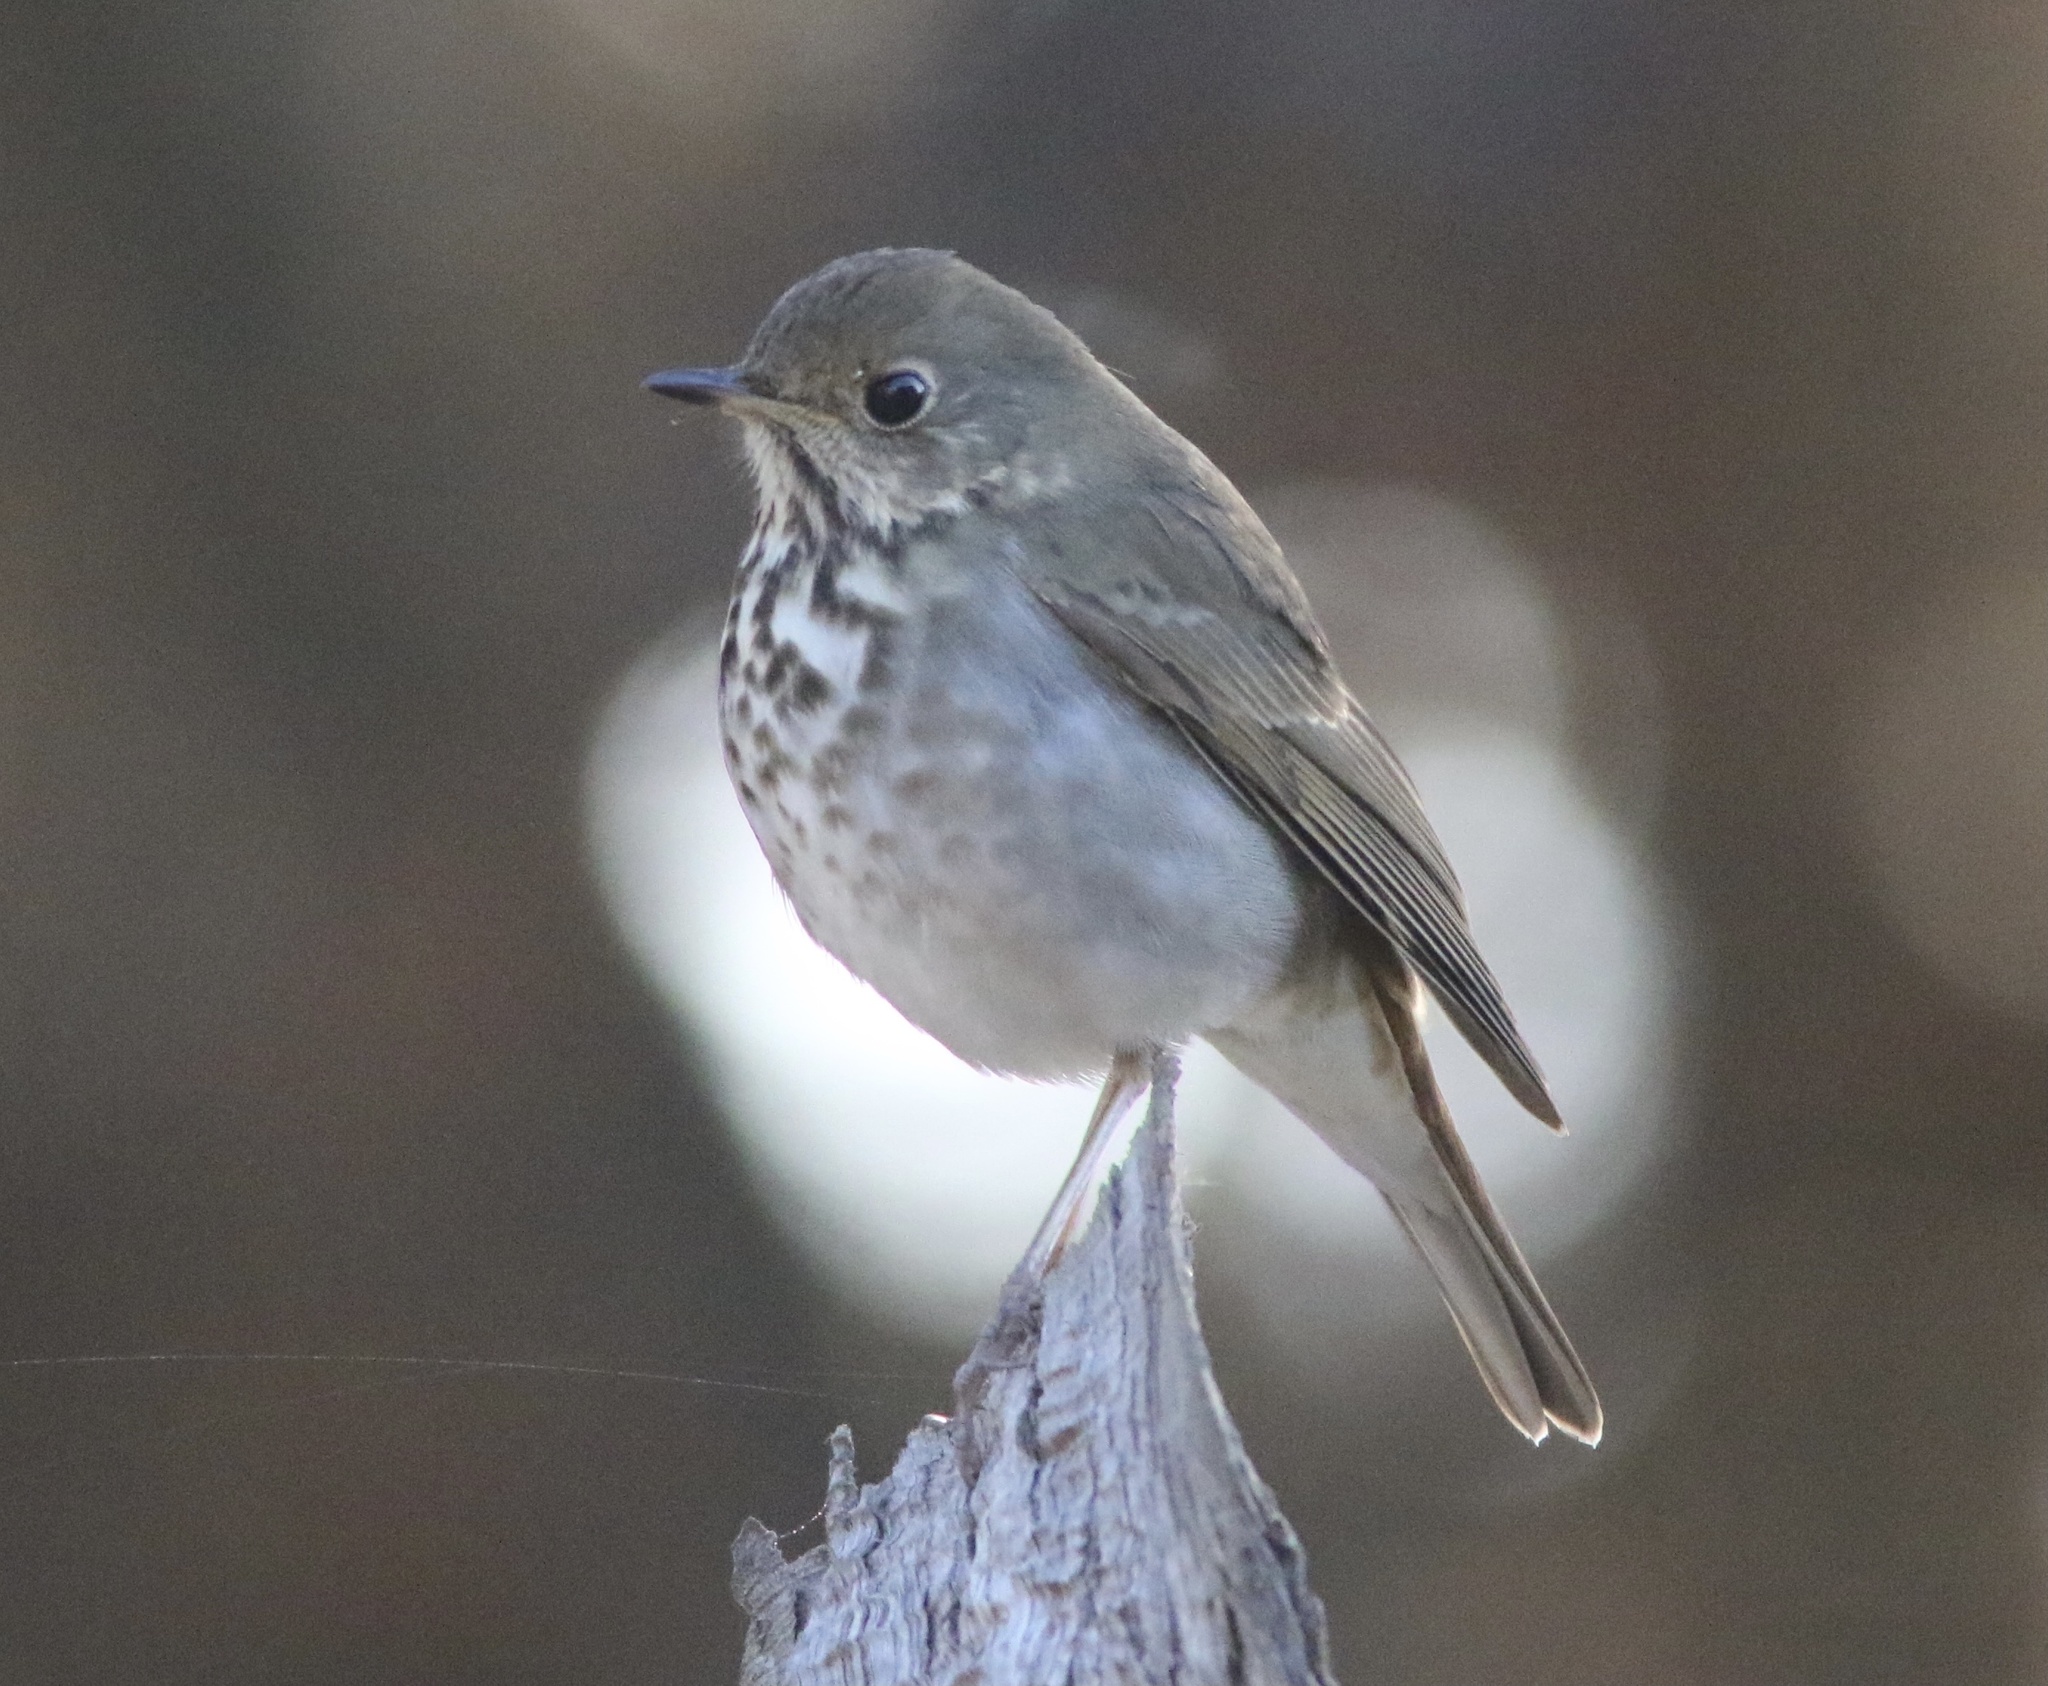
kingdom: Animalia
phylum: Chordata
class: Aves
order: Passeriformes
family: Turdidae
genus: Catharus
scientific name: Catharus guttatus
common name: Hermit thrush
